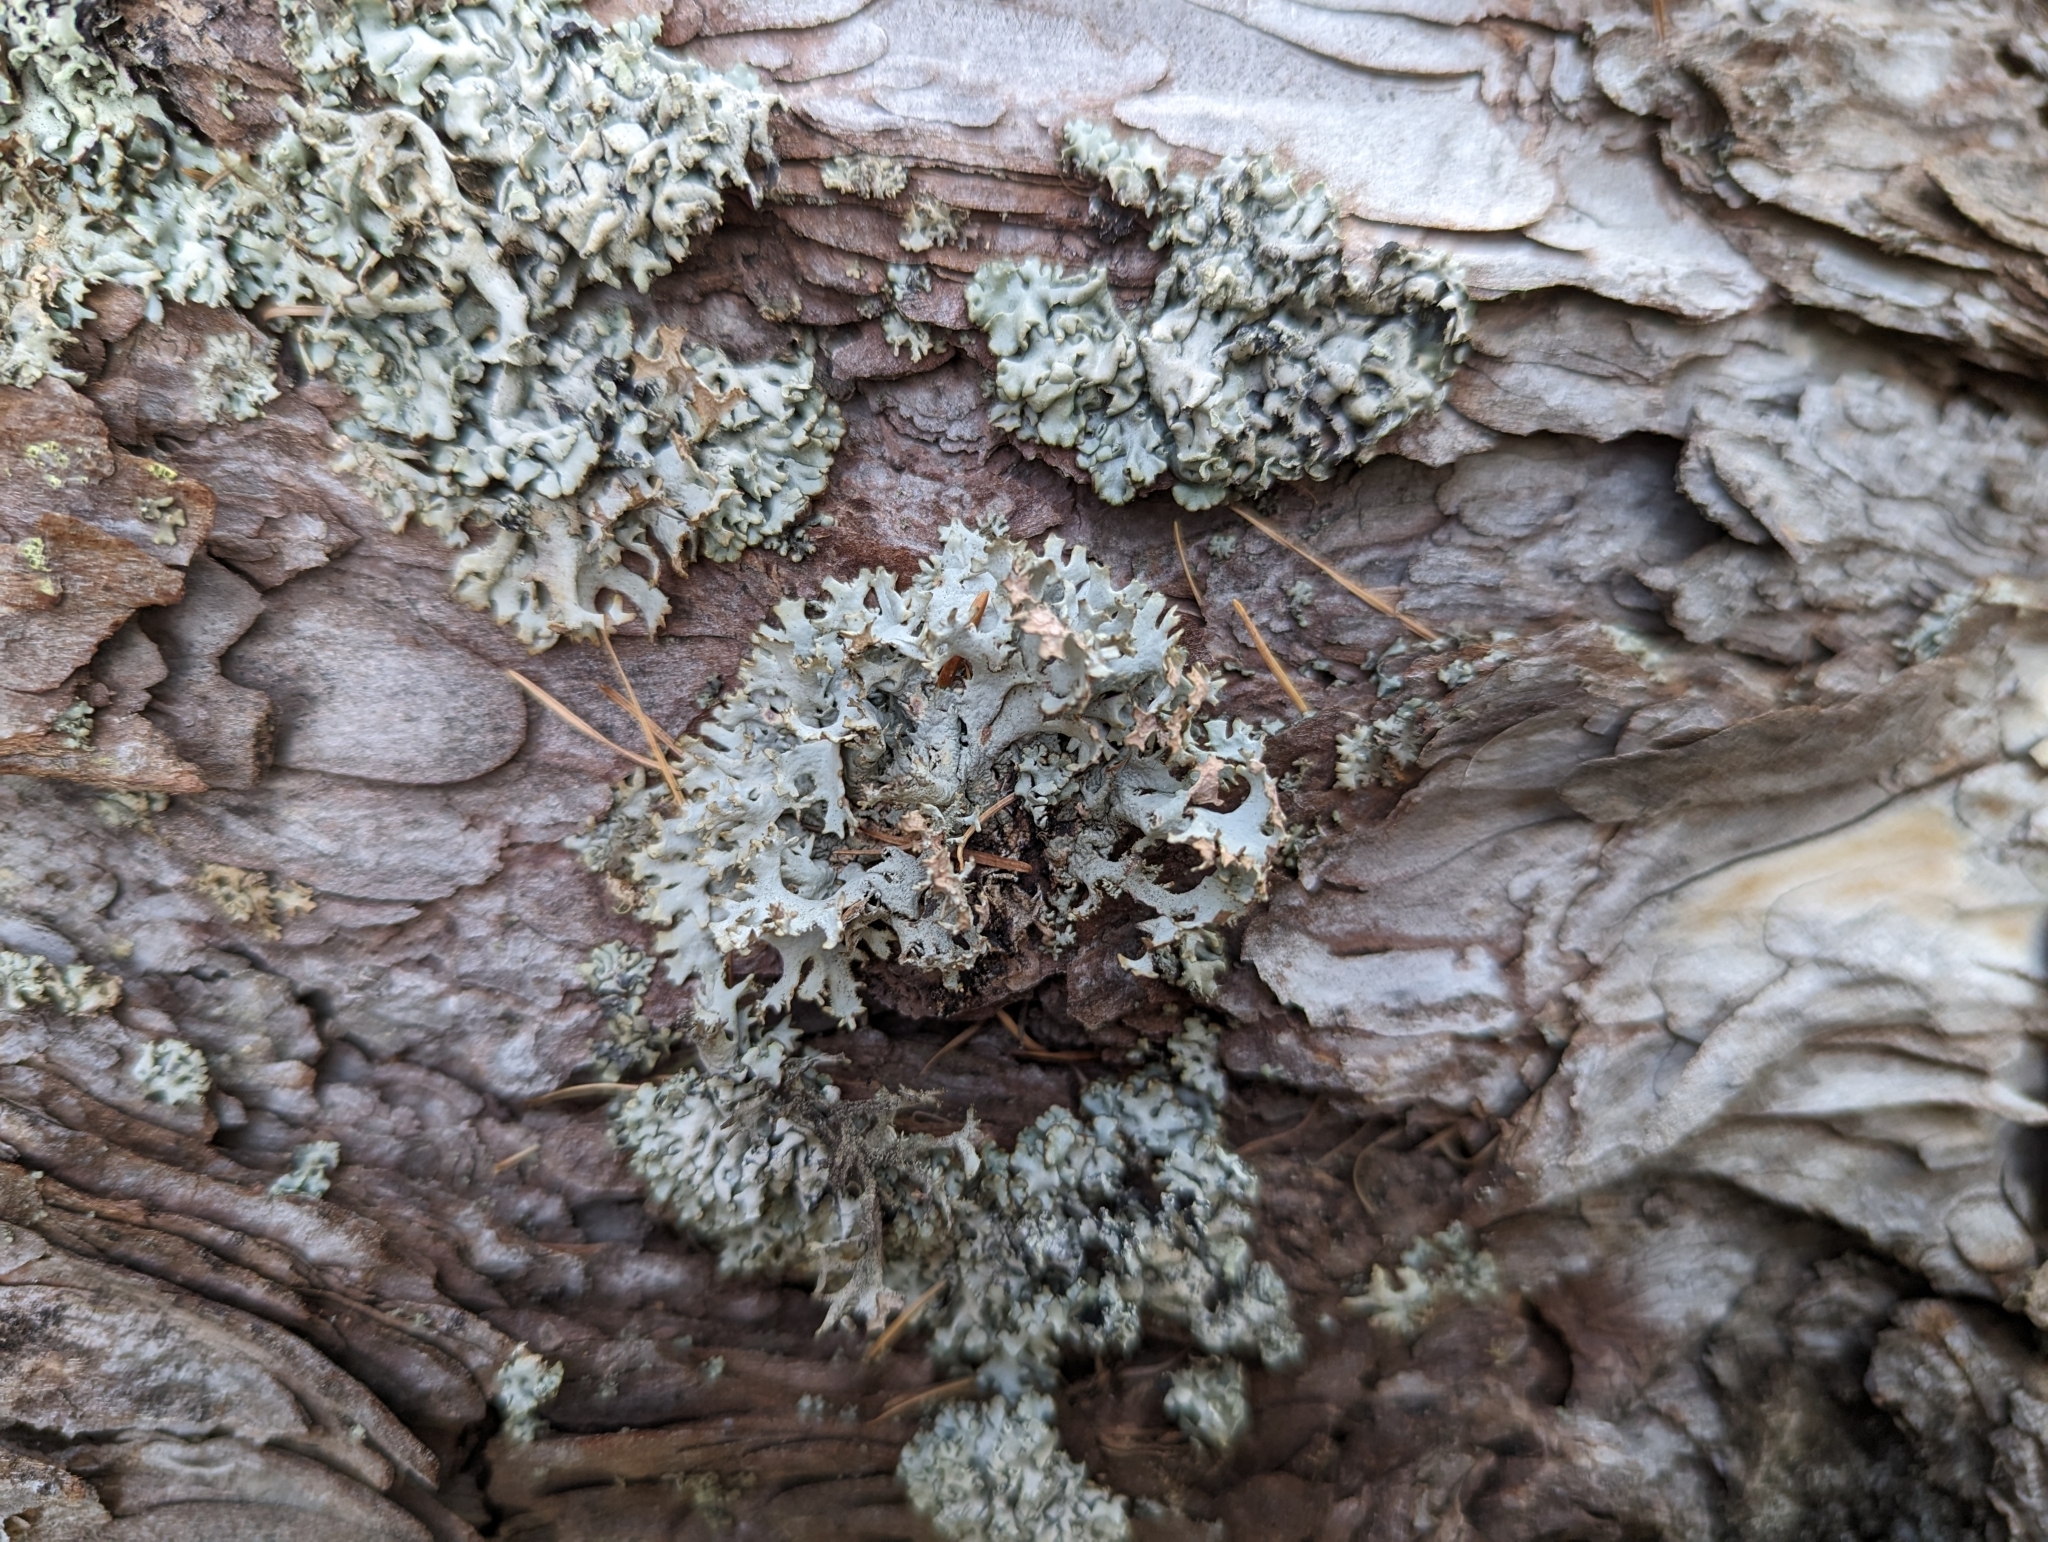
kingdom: Fungi
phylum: Ascomycota
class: Lecanoromycetes
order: Lecanorales
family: Parmeliaceae
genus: Pseudevernia
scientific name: Pseudevernia furfuracea
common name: Tree moss
